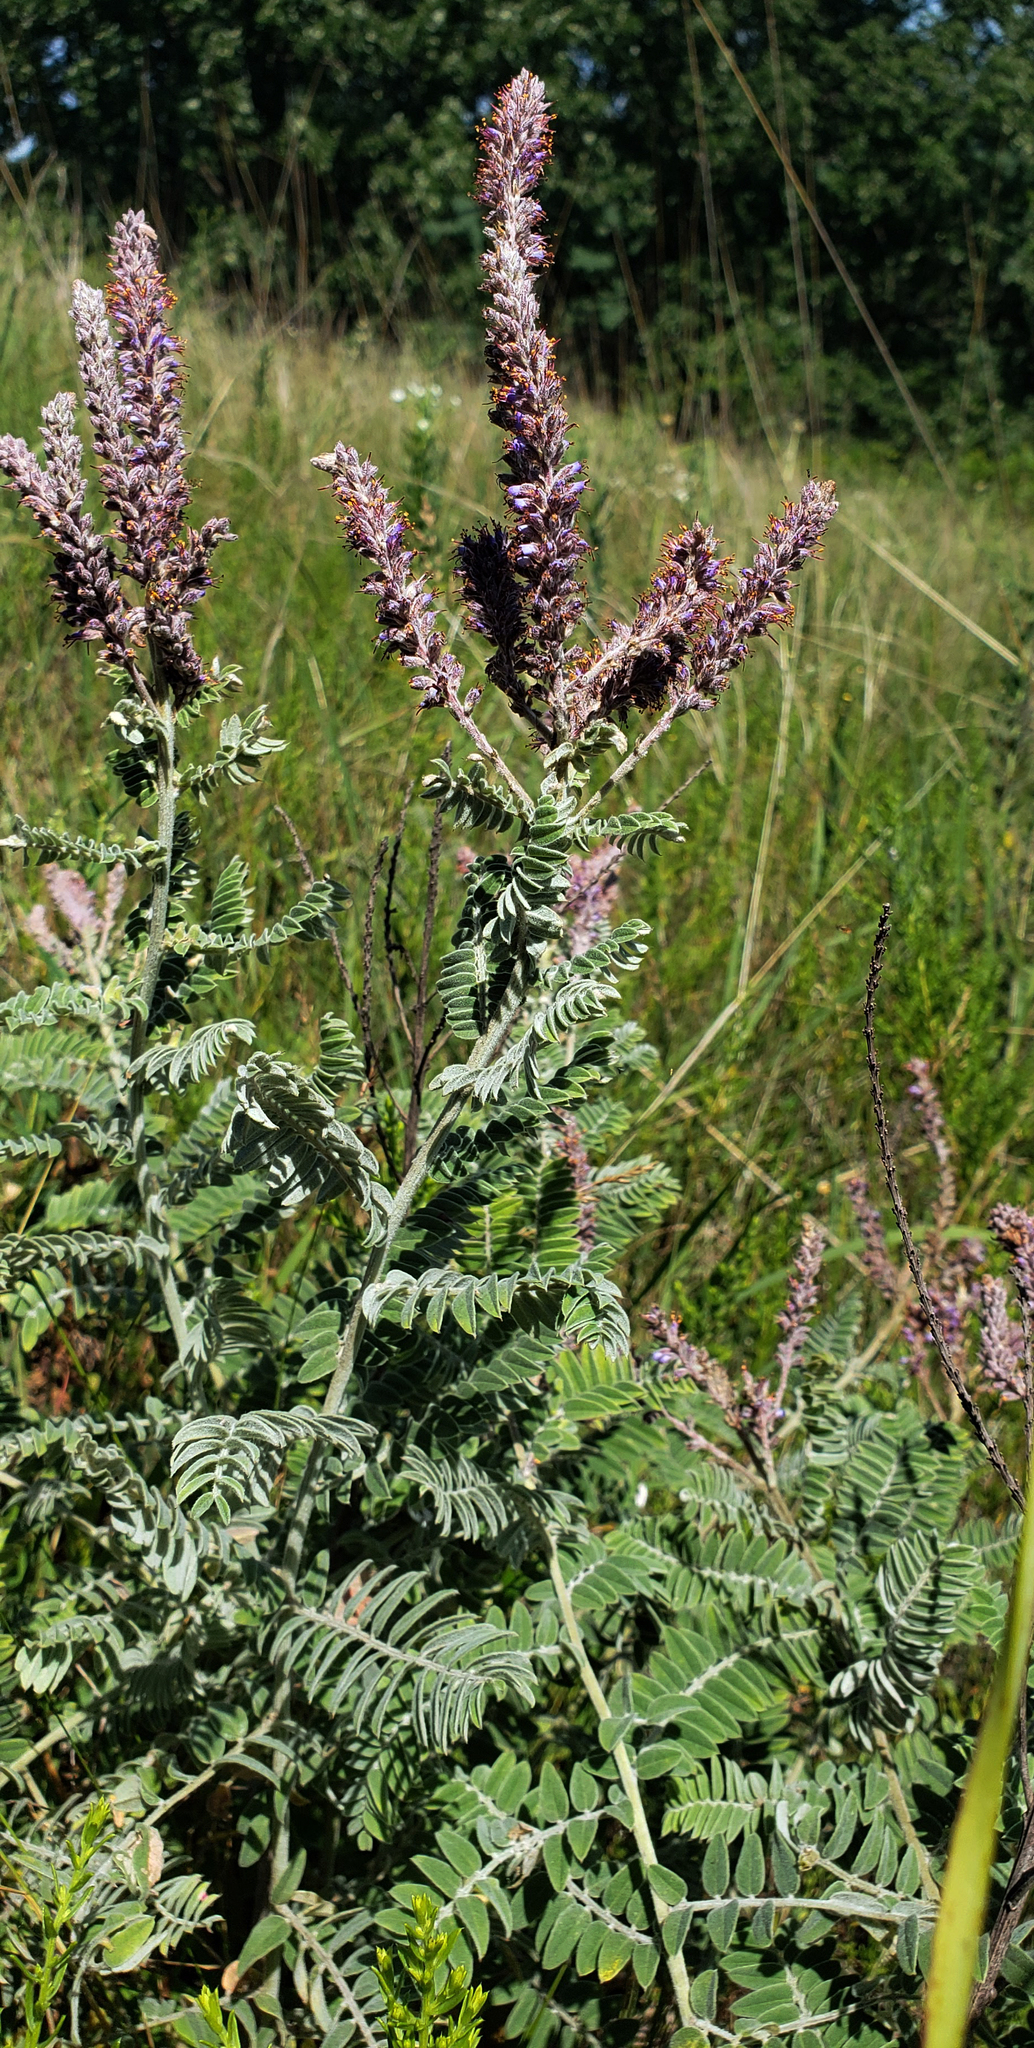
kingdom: Plantae
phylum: Tracheophyta
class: Magnoliopsida
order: Fabales
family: Fabaceae
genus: Amorpha
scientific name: Amorpha canescens
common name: Leadplant
